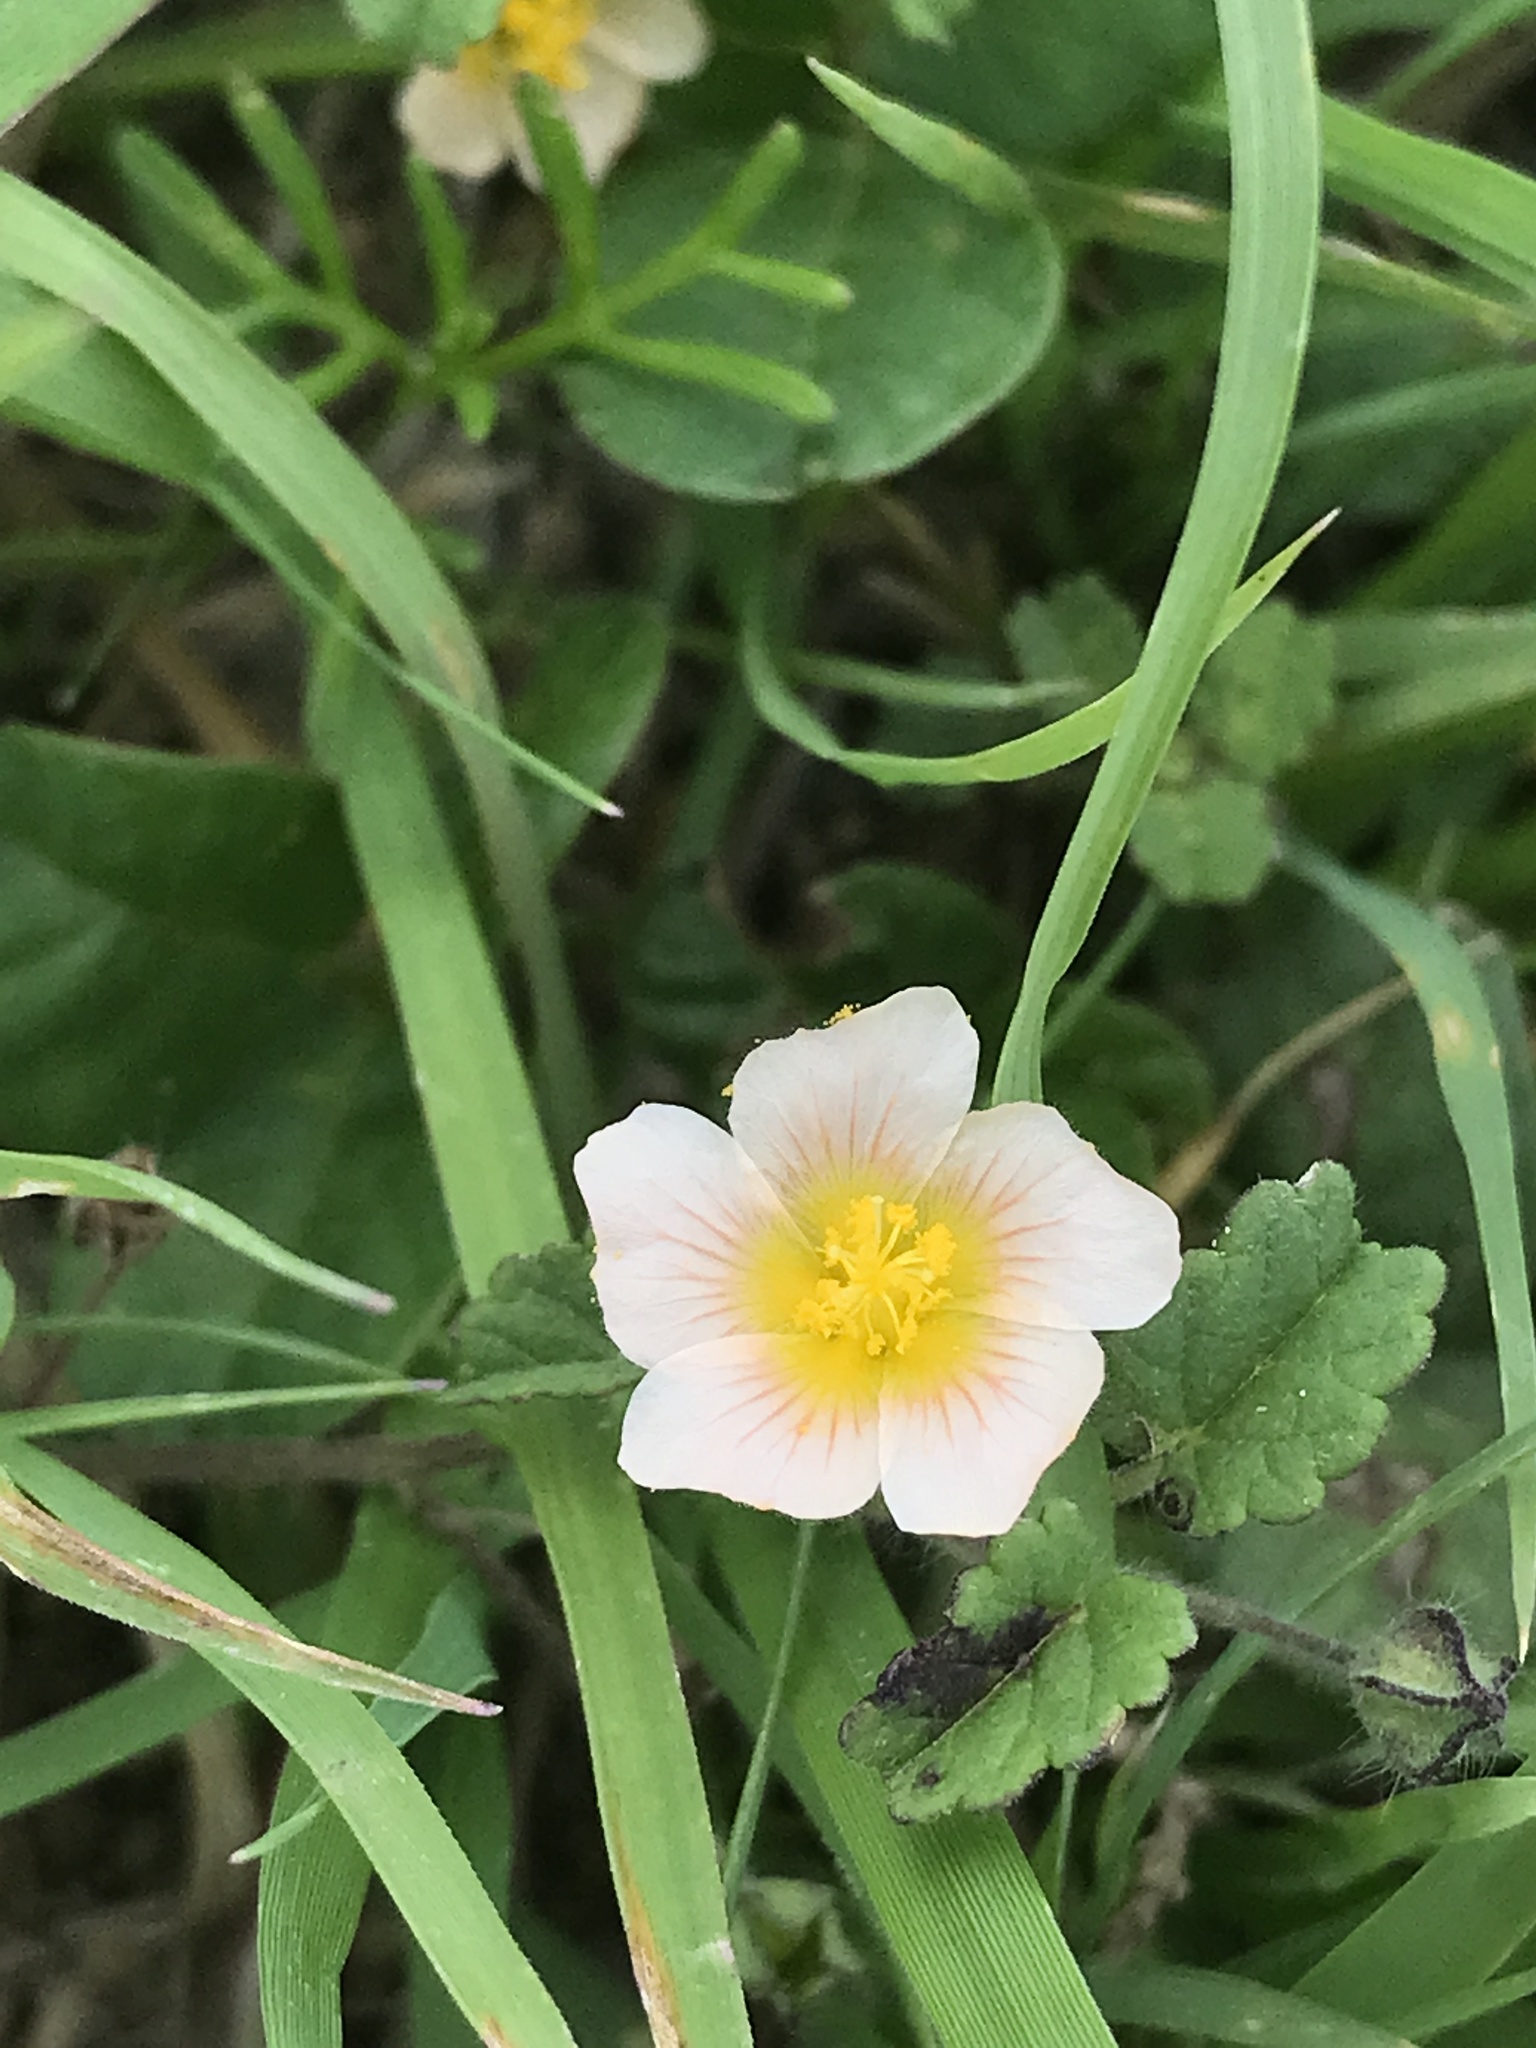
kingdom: Plantae
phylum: Tracheophyta
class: Magnoliopsida
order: Malvales
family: Malvaceae
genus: Sida
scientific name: Sida abutilifolia
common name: Spreading fanpetals
